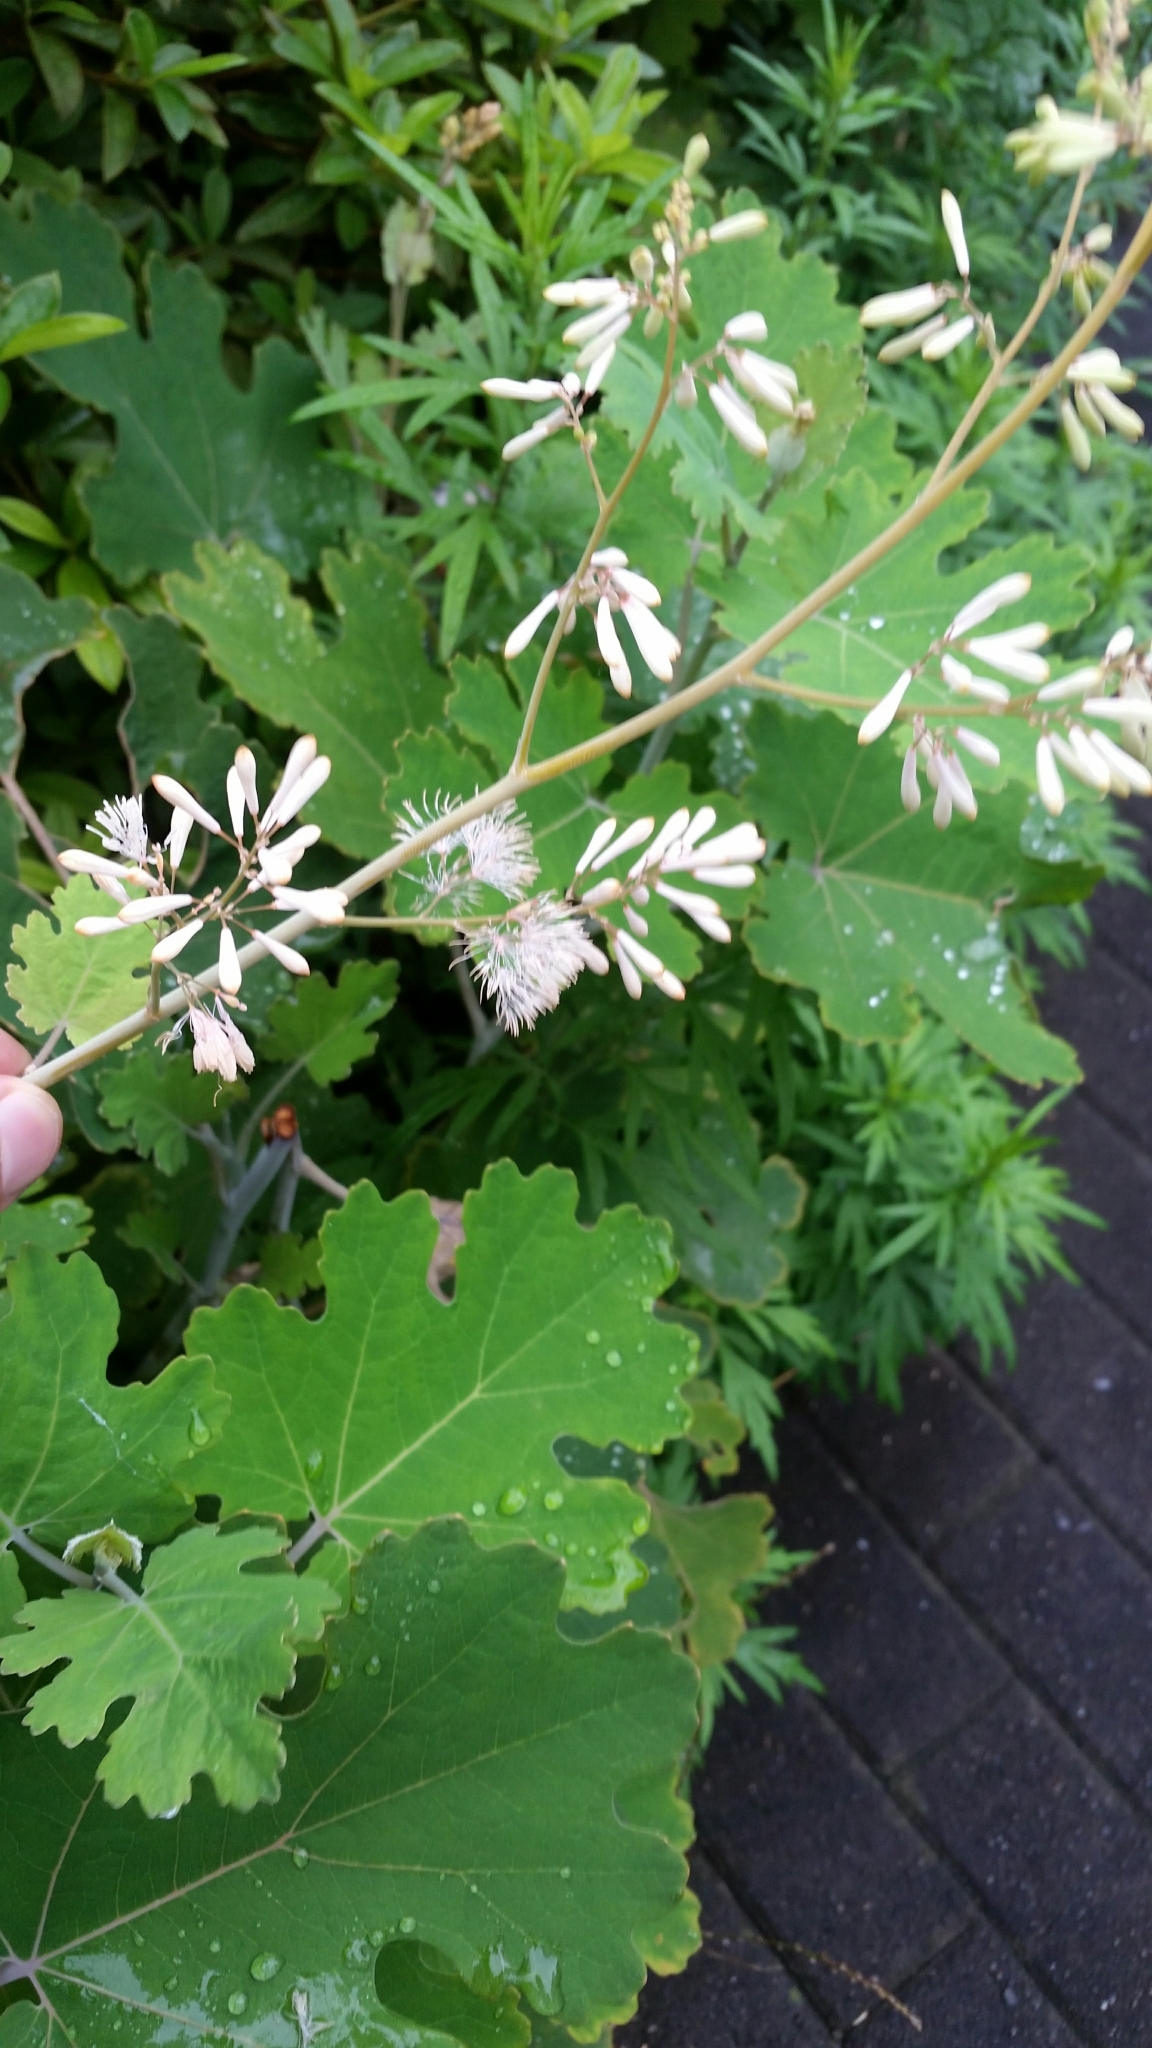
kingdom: Plantae
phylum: Tracheophyta
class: Magnoliopsida
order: Ranunculales
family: Papaveraceae
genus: Macleaya
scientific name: Macleaya cordata
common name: Plume poppy
